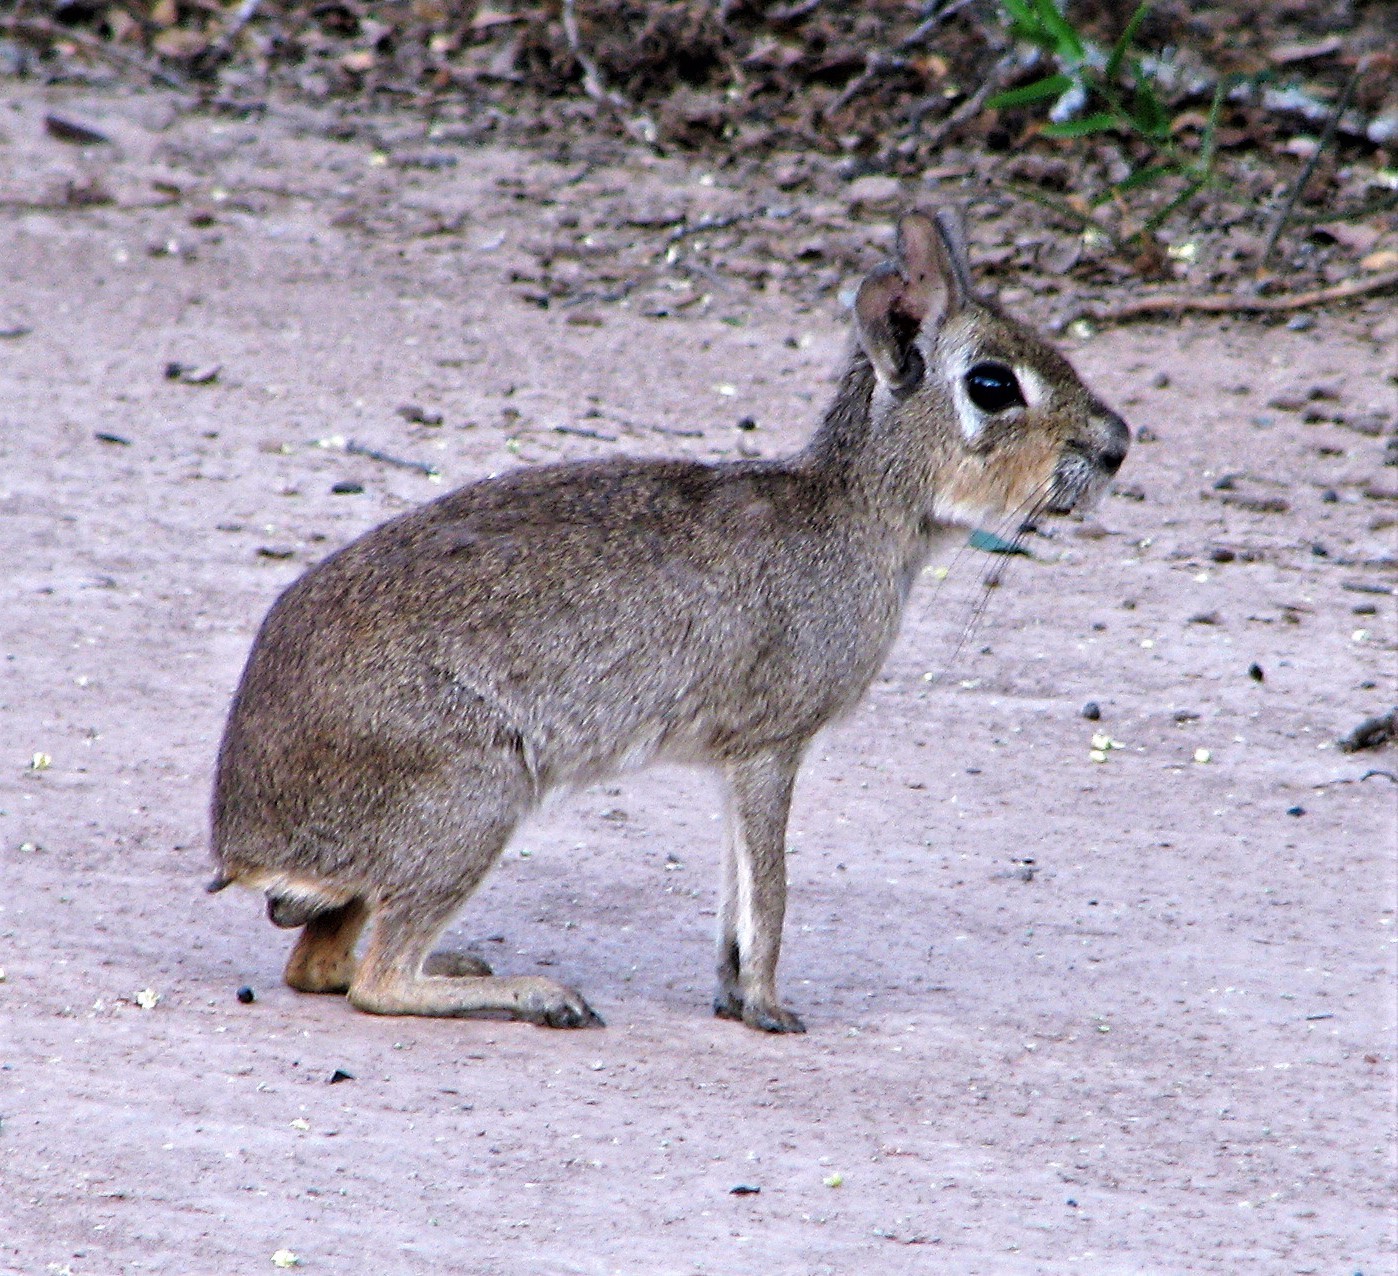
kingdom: Animalia
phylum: Chordata
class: Mammalia
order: Rodentia
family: Caviidae
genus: Dolichotis
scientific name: Dolichotis Pediolagus salinicola
